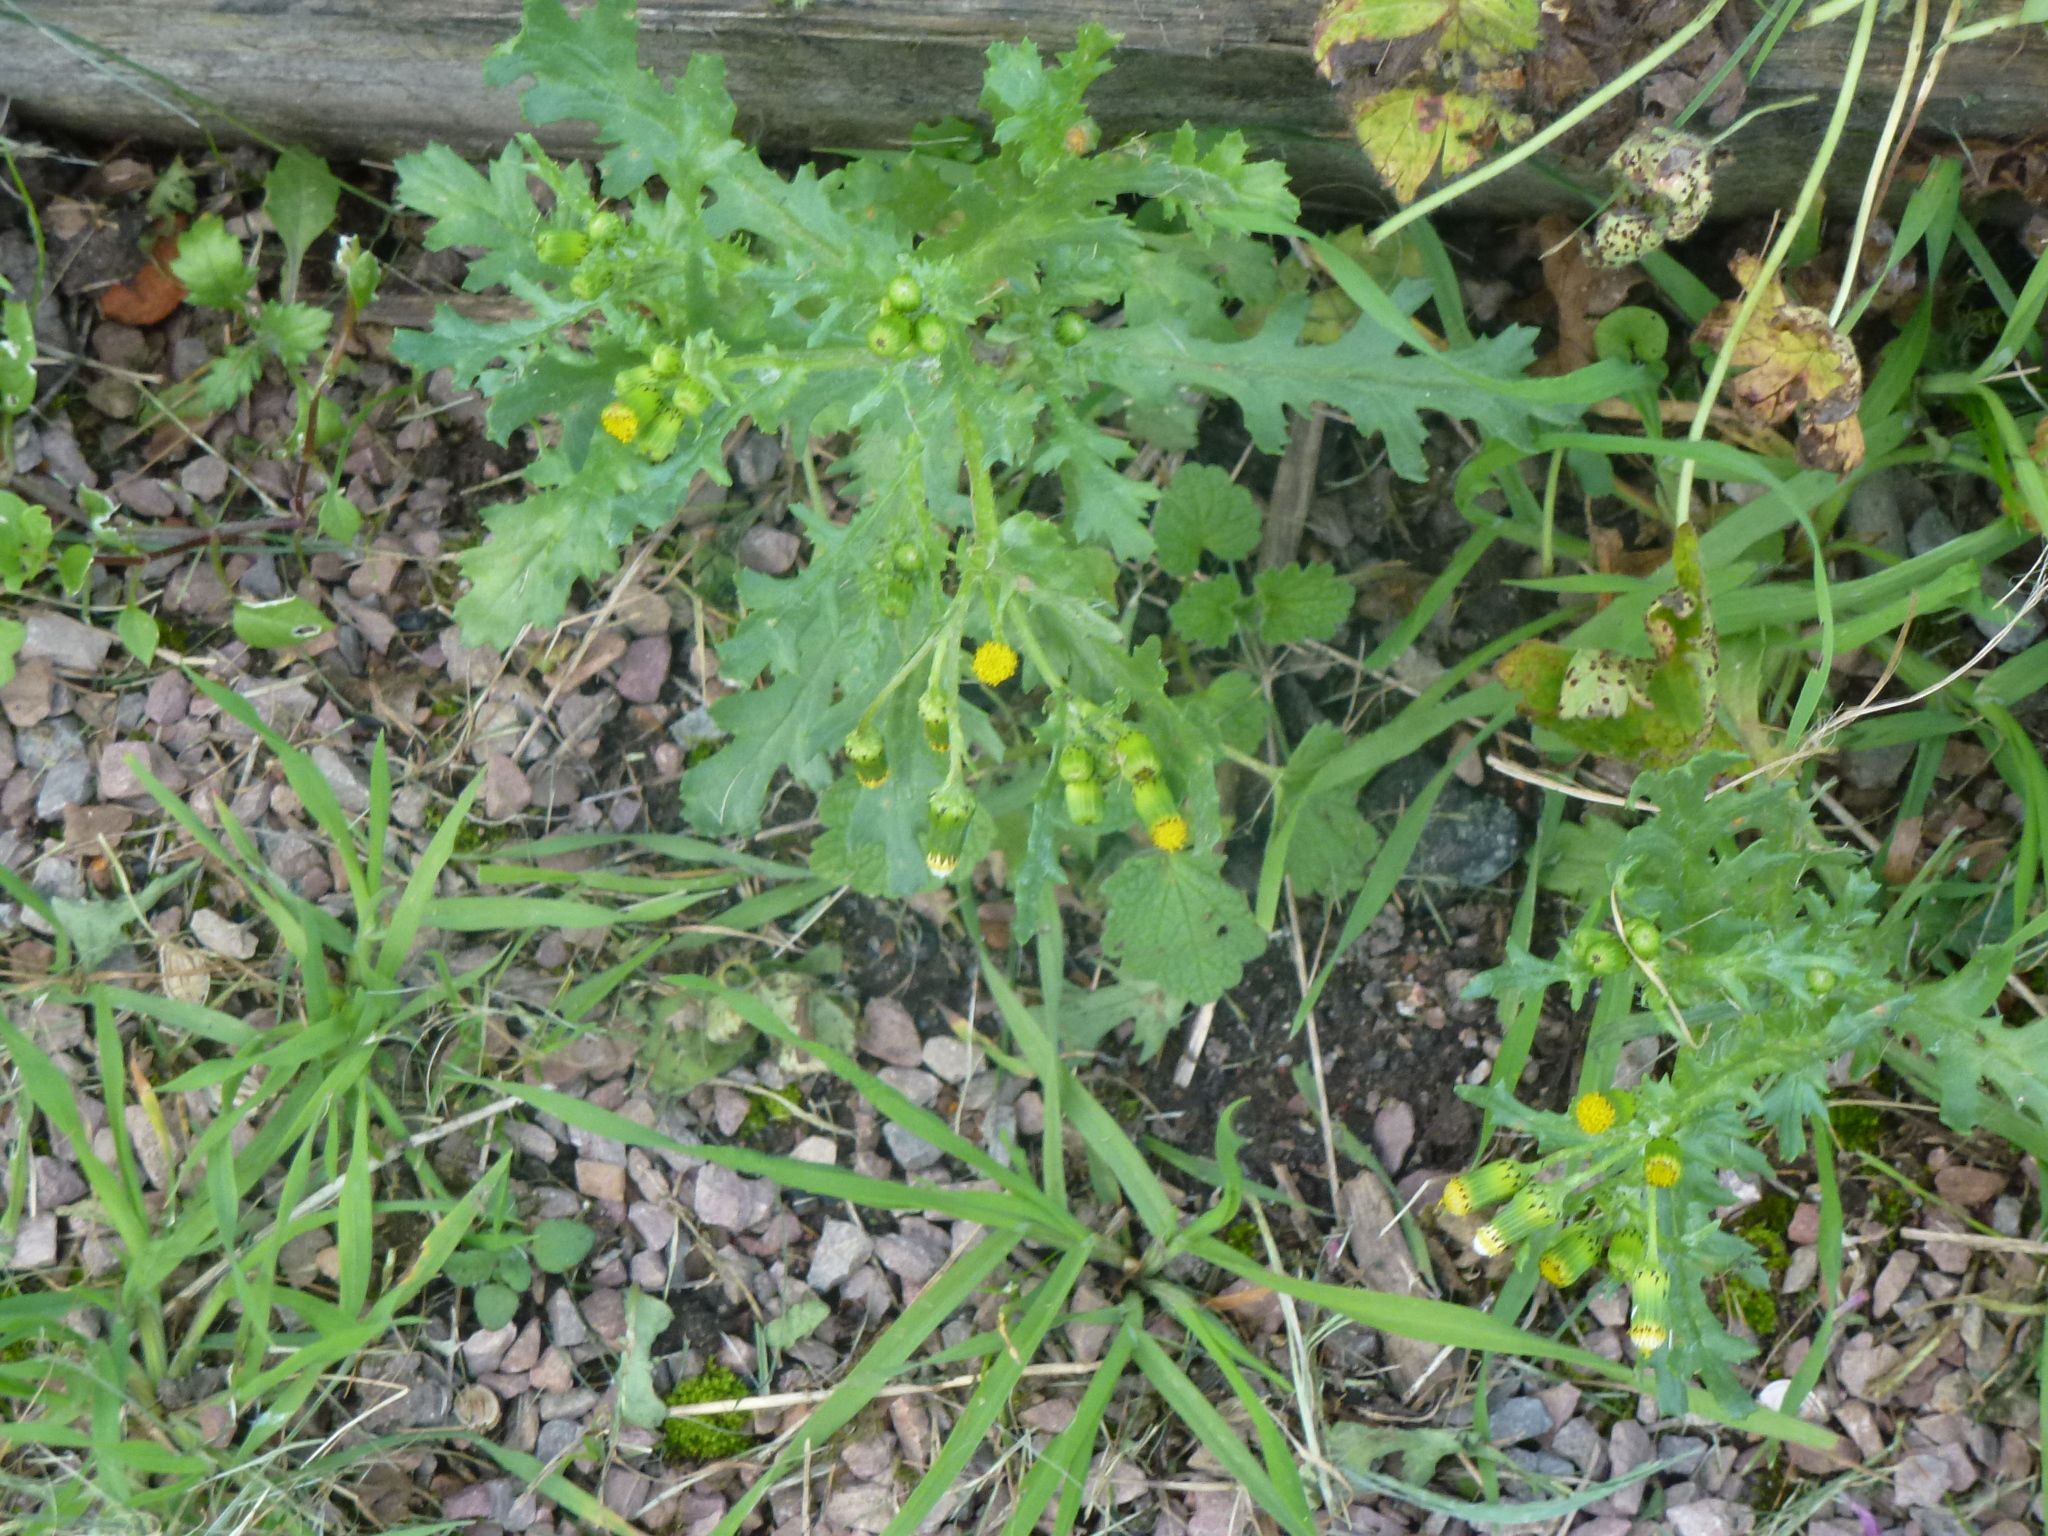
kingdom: Plantae
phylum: Tracheophyta
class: Magnoliopsida
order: Asterales
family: Asteraceae
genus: Senecio
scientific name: Senecio vulgaris
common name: Old-man-in-the-spring
